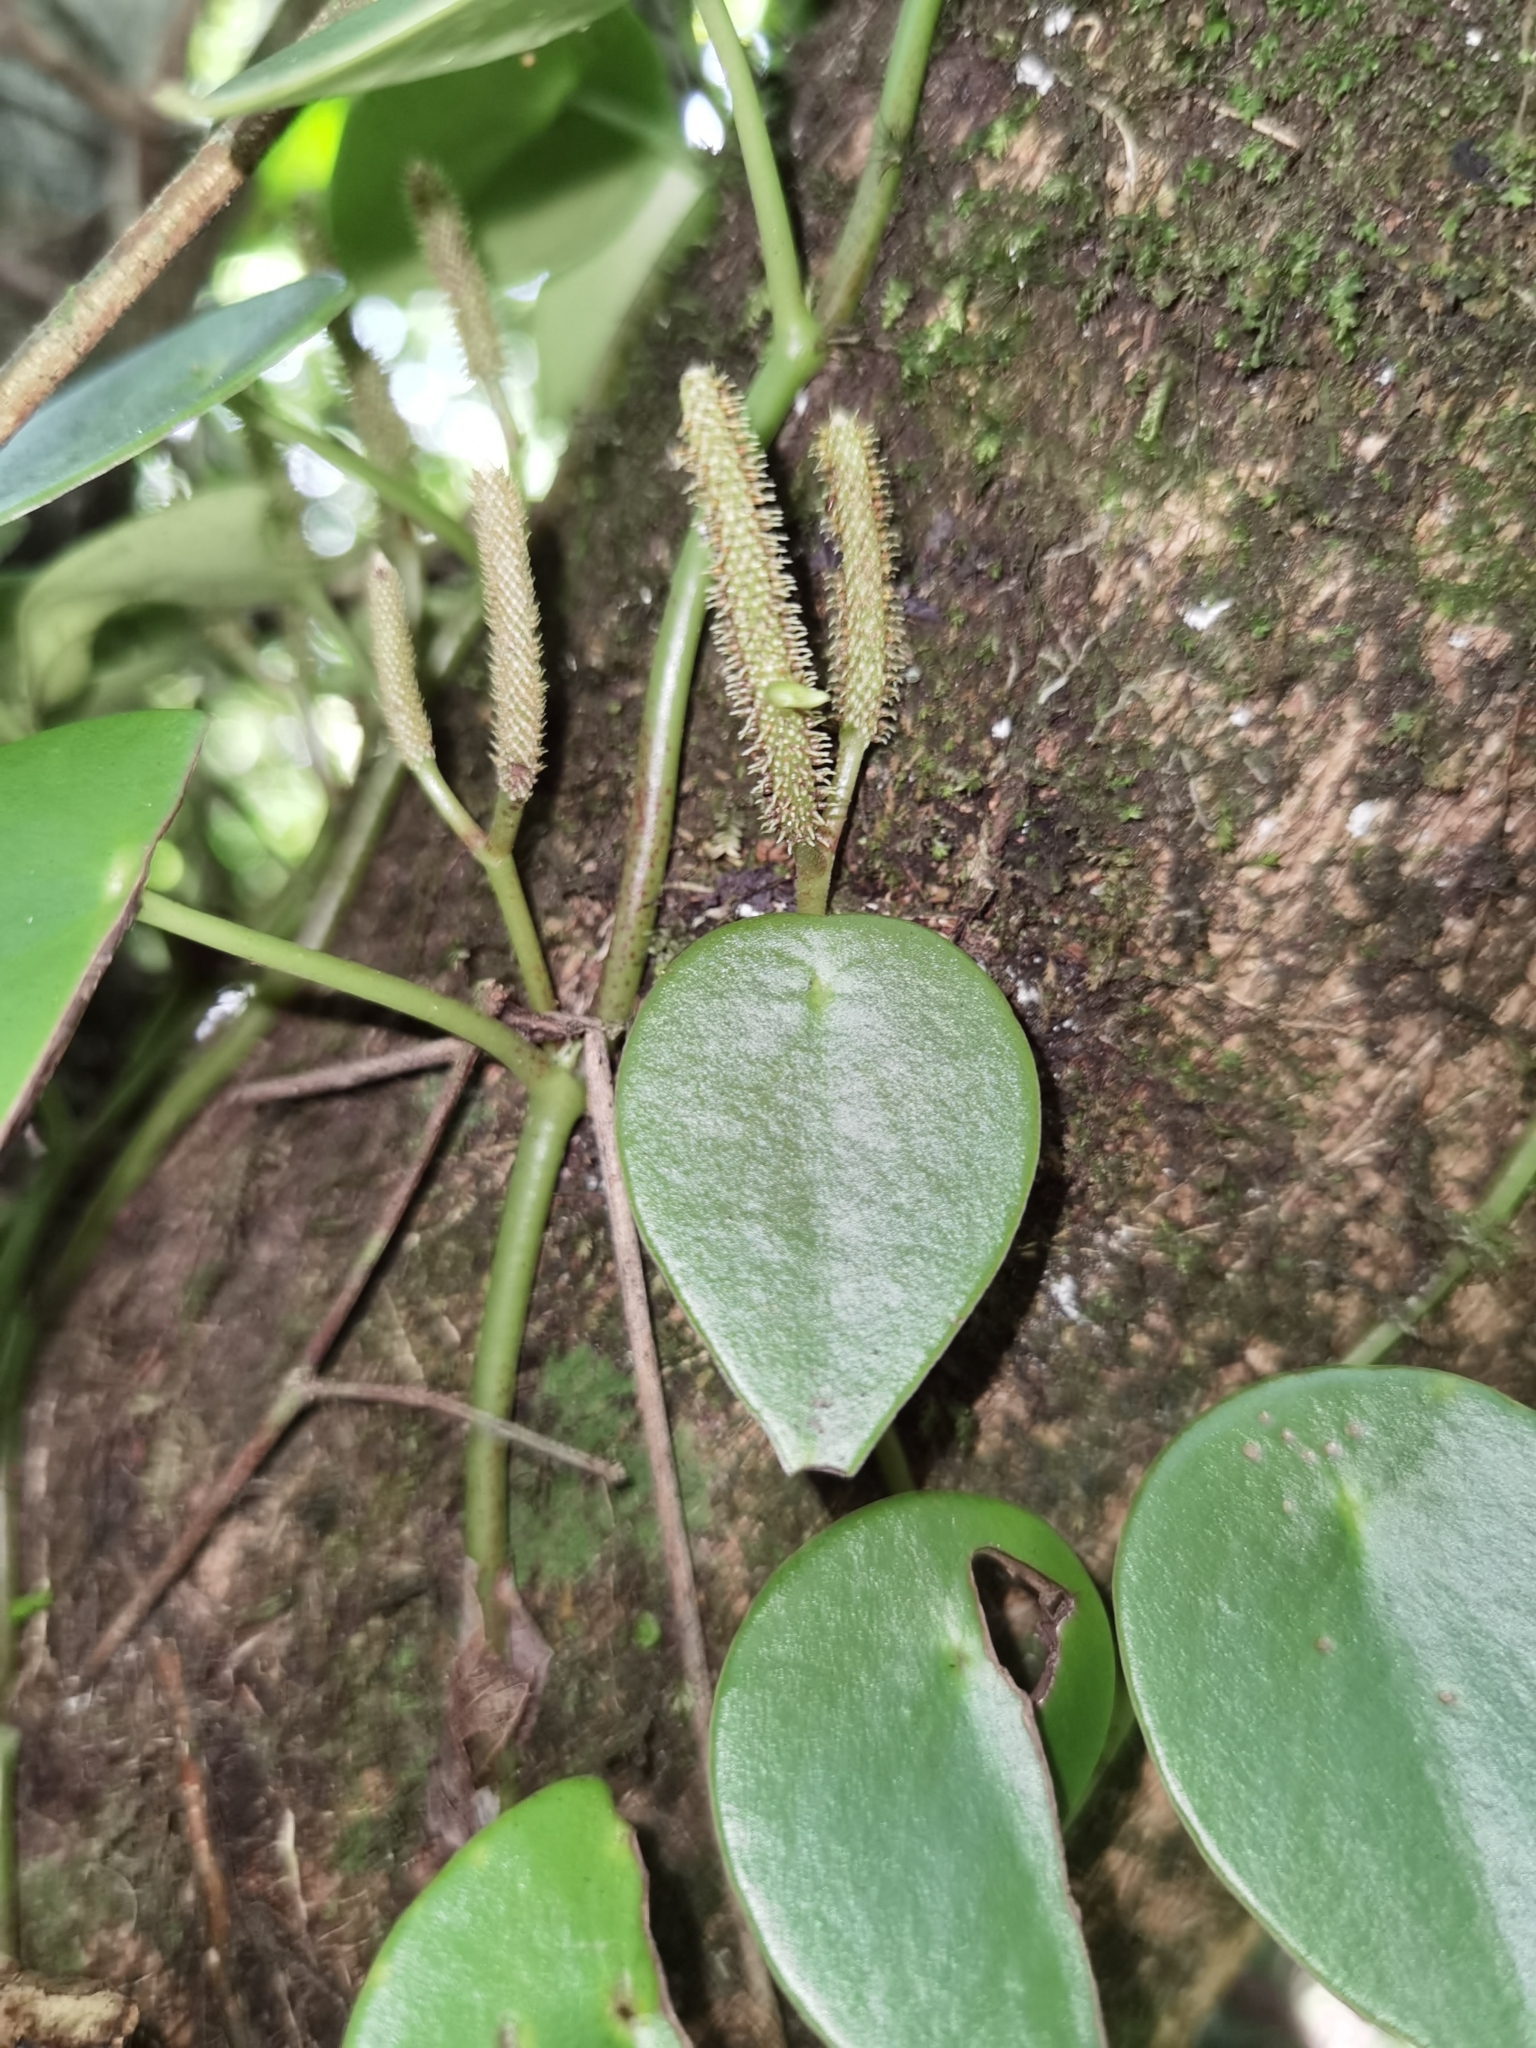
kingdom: Plantae
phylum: Tracheophyta
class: Magnoliopsida
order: Piperales
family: Piperaceae
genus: Peperomia
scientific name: Peperomia peltilimba
